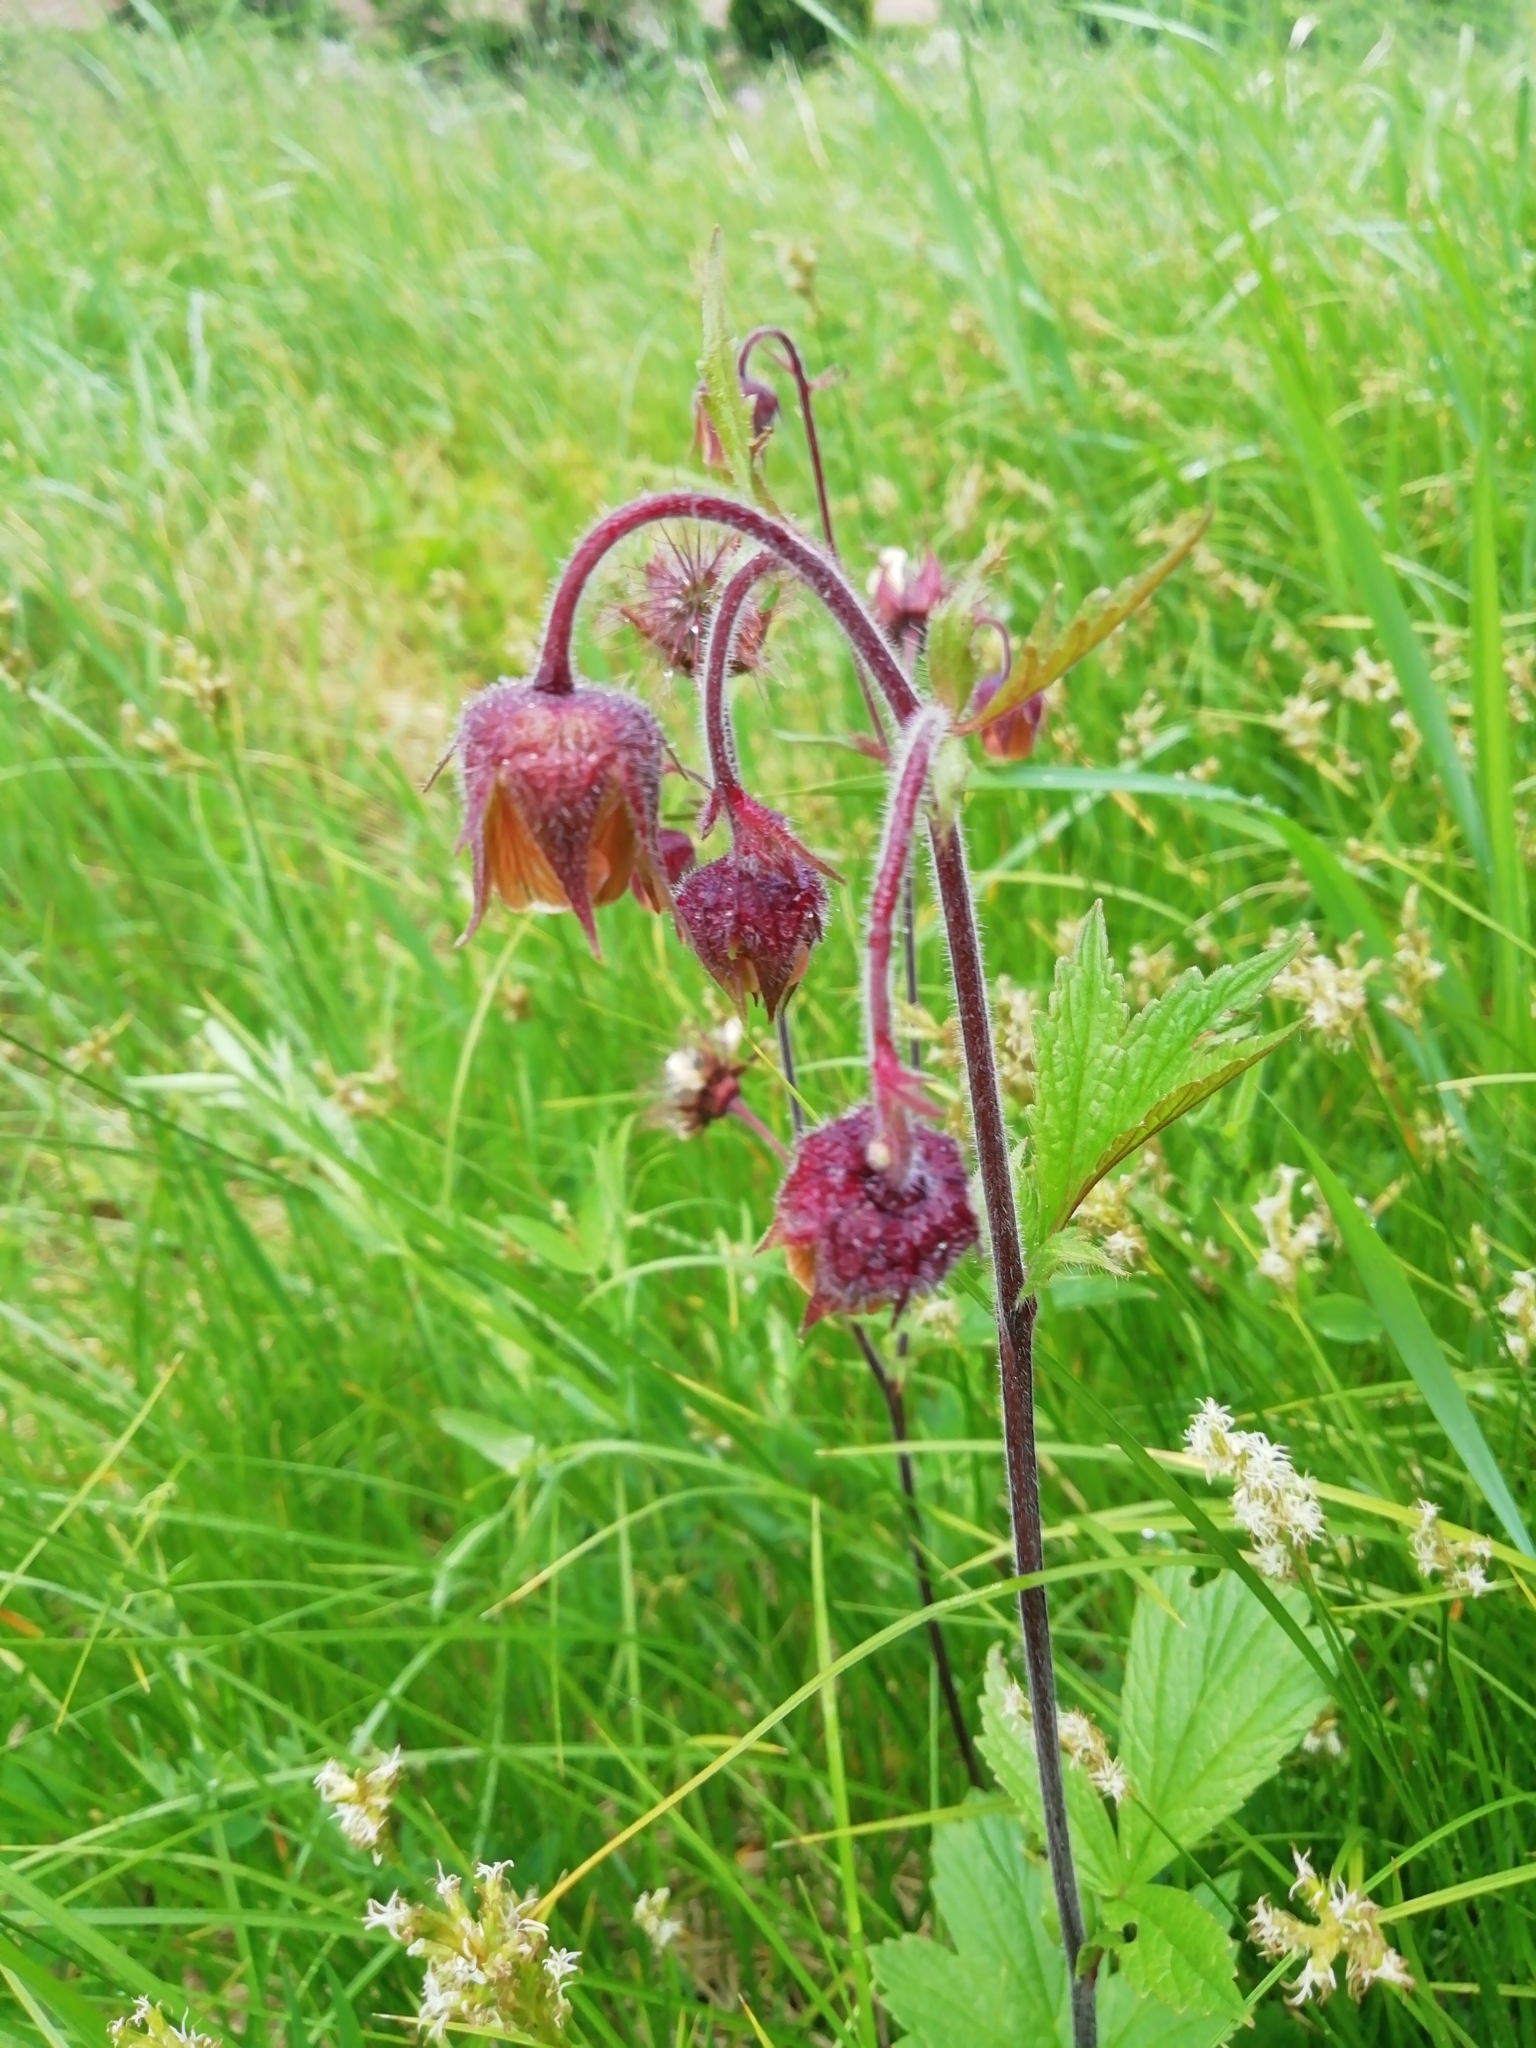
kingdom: Plantae
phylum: Tracheophyta
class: Magnoliopsida
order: Rosales
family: Rosaceae
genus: Geum
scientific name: Geum rivale
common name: Water avens
